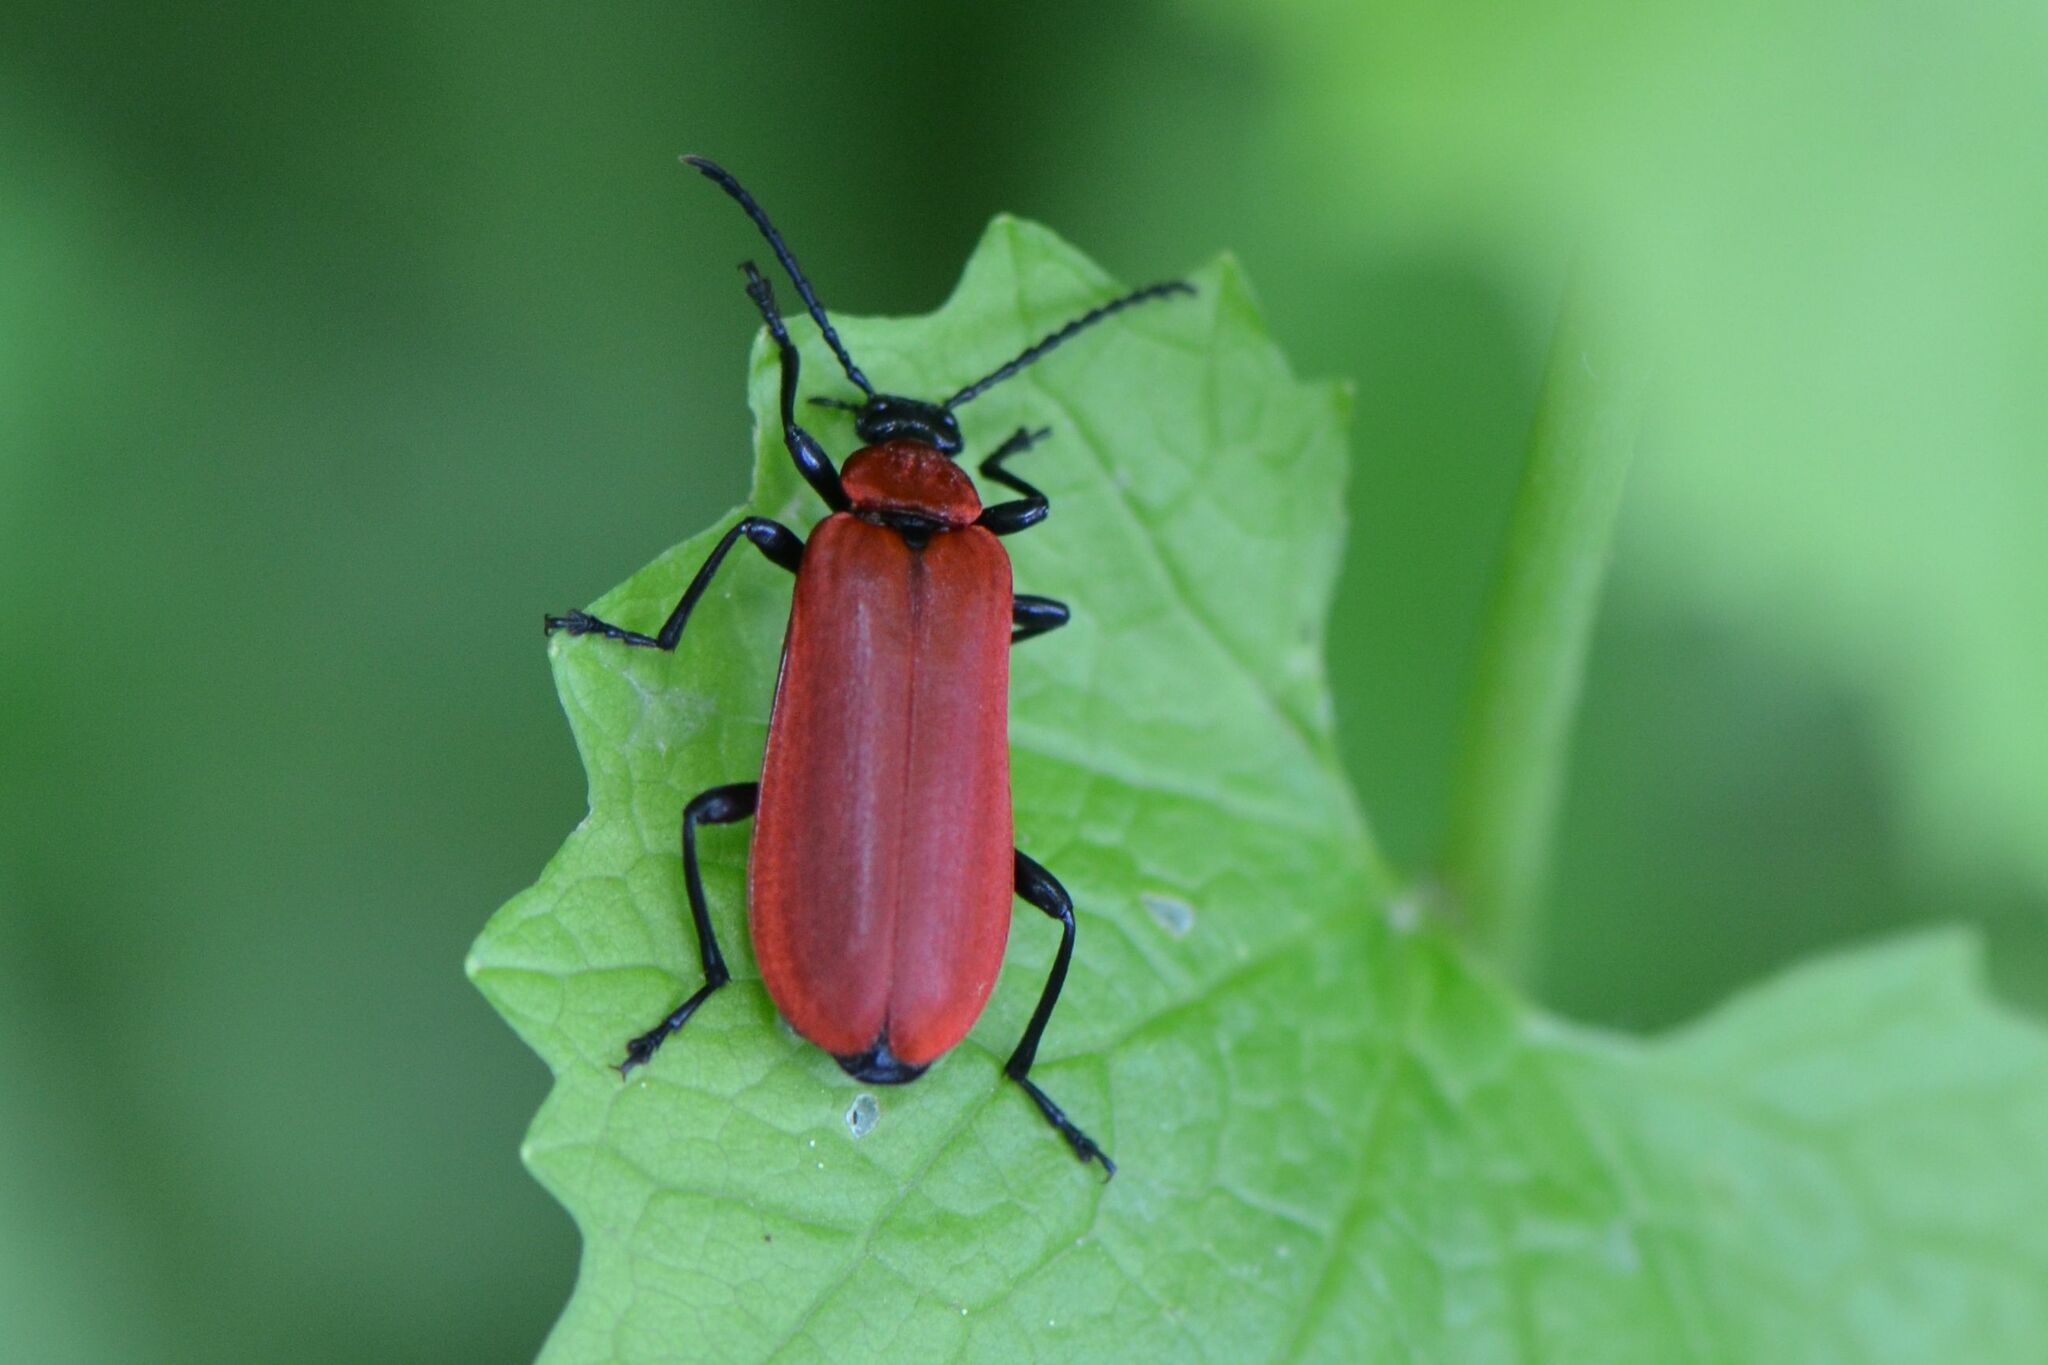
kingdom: Animalia
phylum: Arthropoda
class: Insecta
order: Coleoptera
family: Pyrochroidae
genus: Pyrochroa
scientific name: Pyrochroa coccinea
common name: Black-headed cardinal beetle
